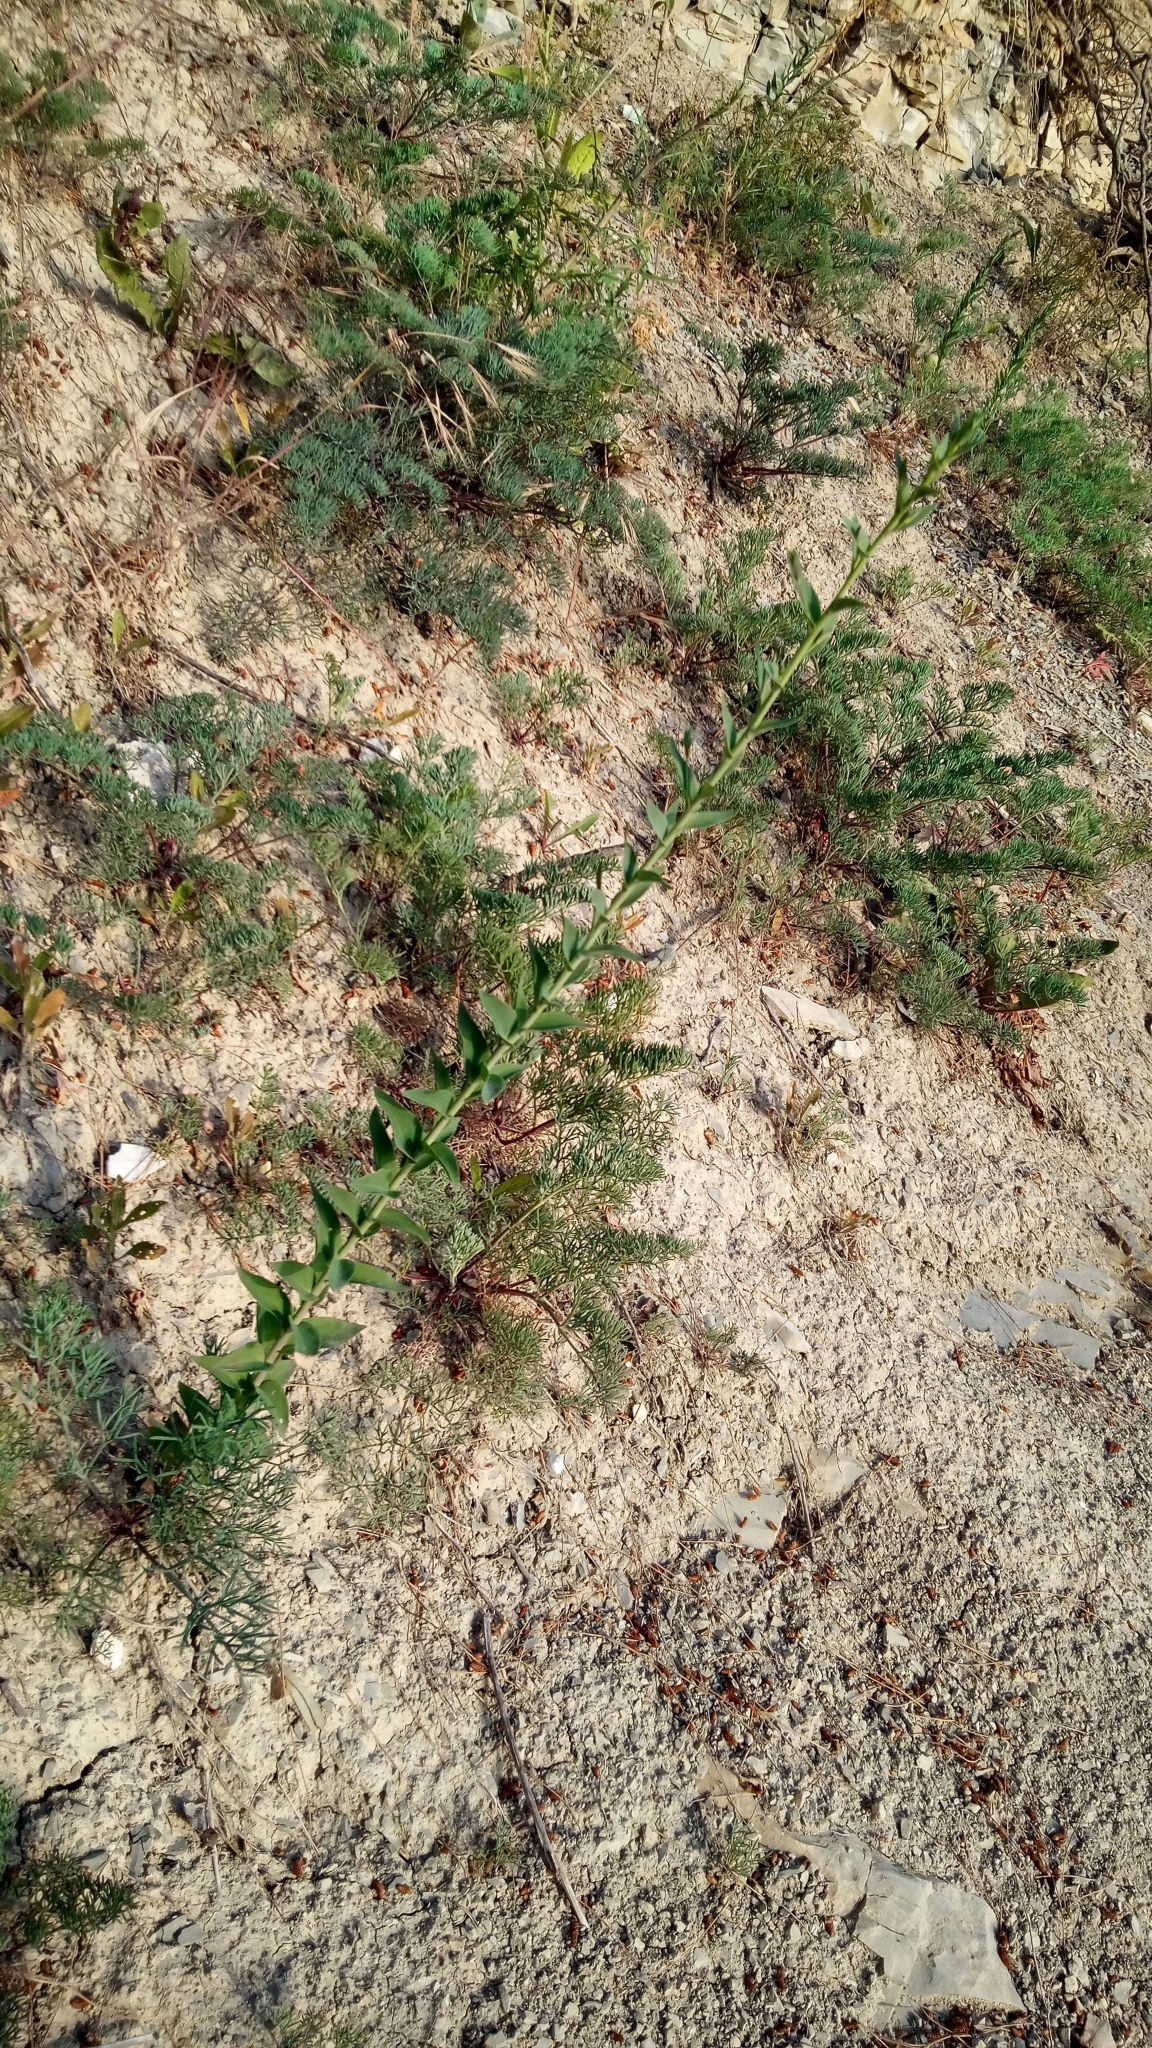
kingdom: Plantae
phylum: Tracheophyta
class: Magnoliopsida
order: Lamiales
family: Plantaginaceae
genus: Linaria
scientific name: Linaria genistifolia
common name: Broomleaf toadflax
